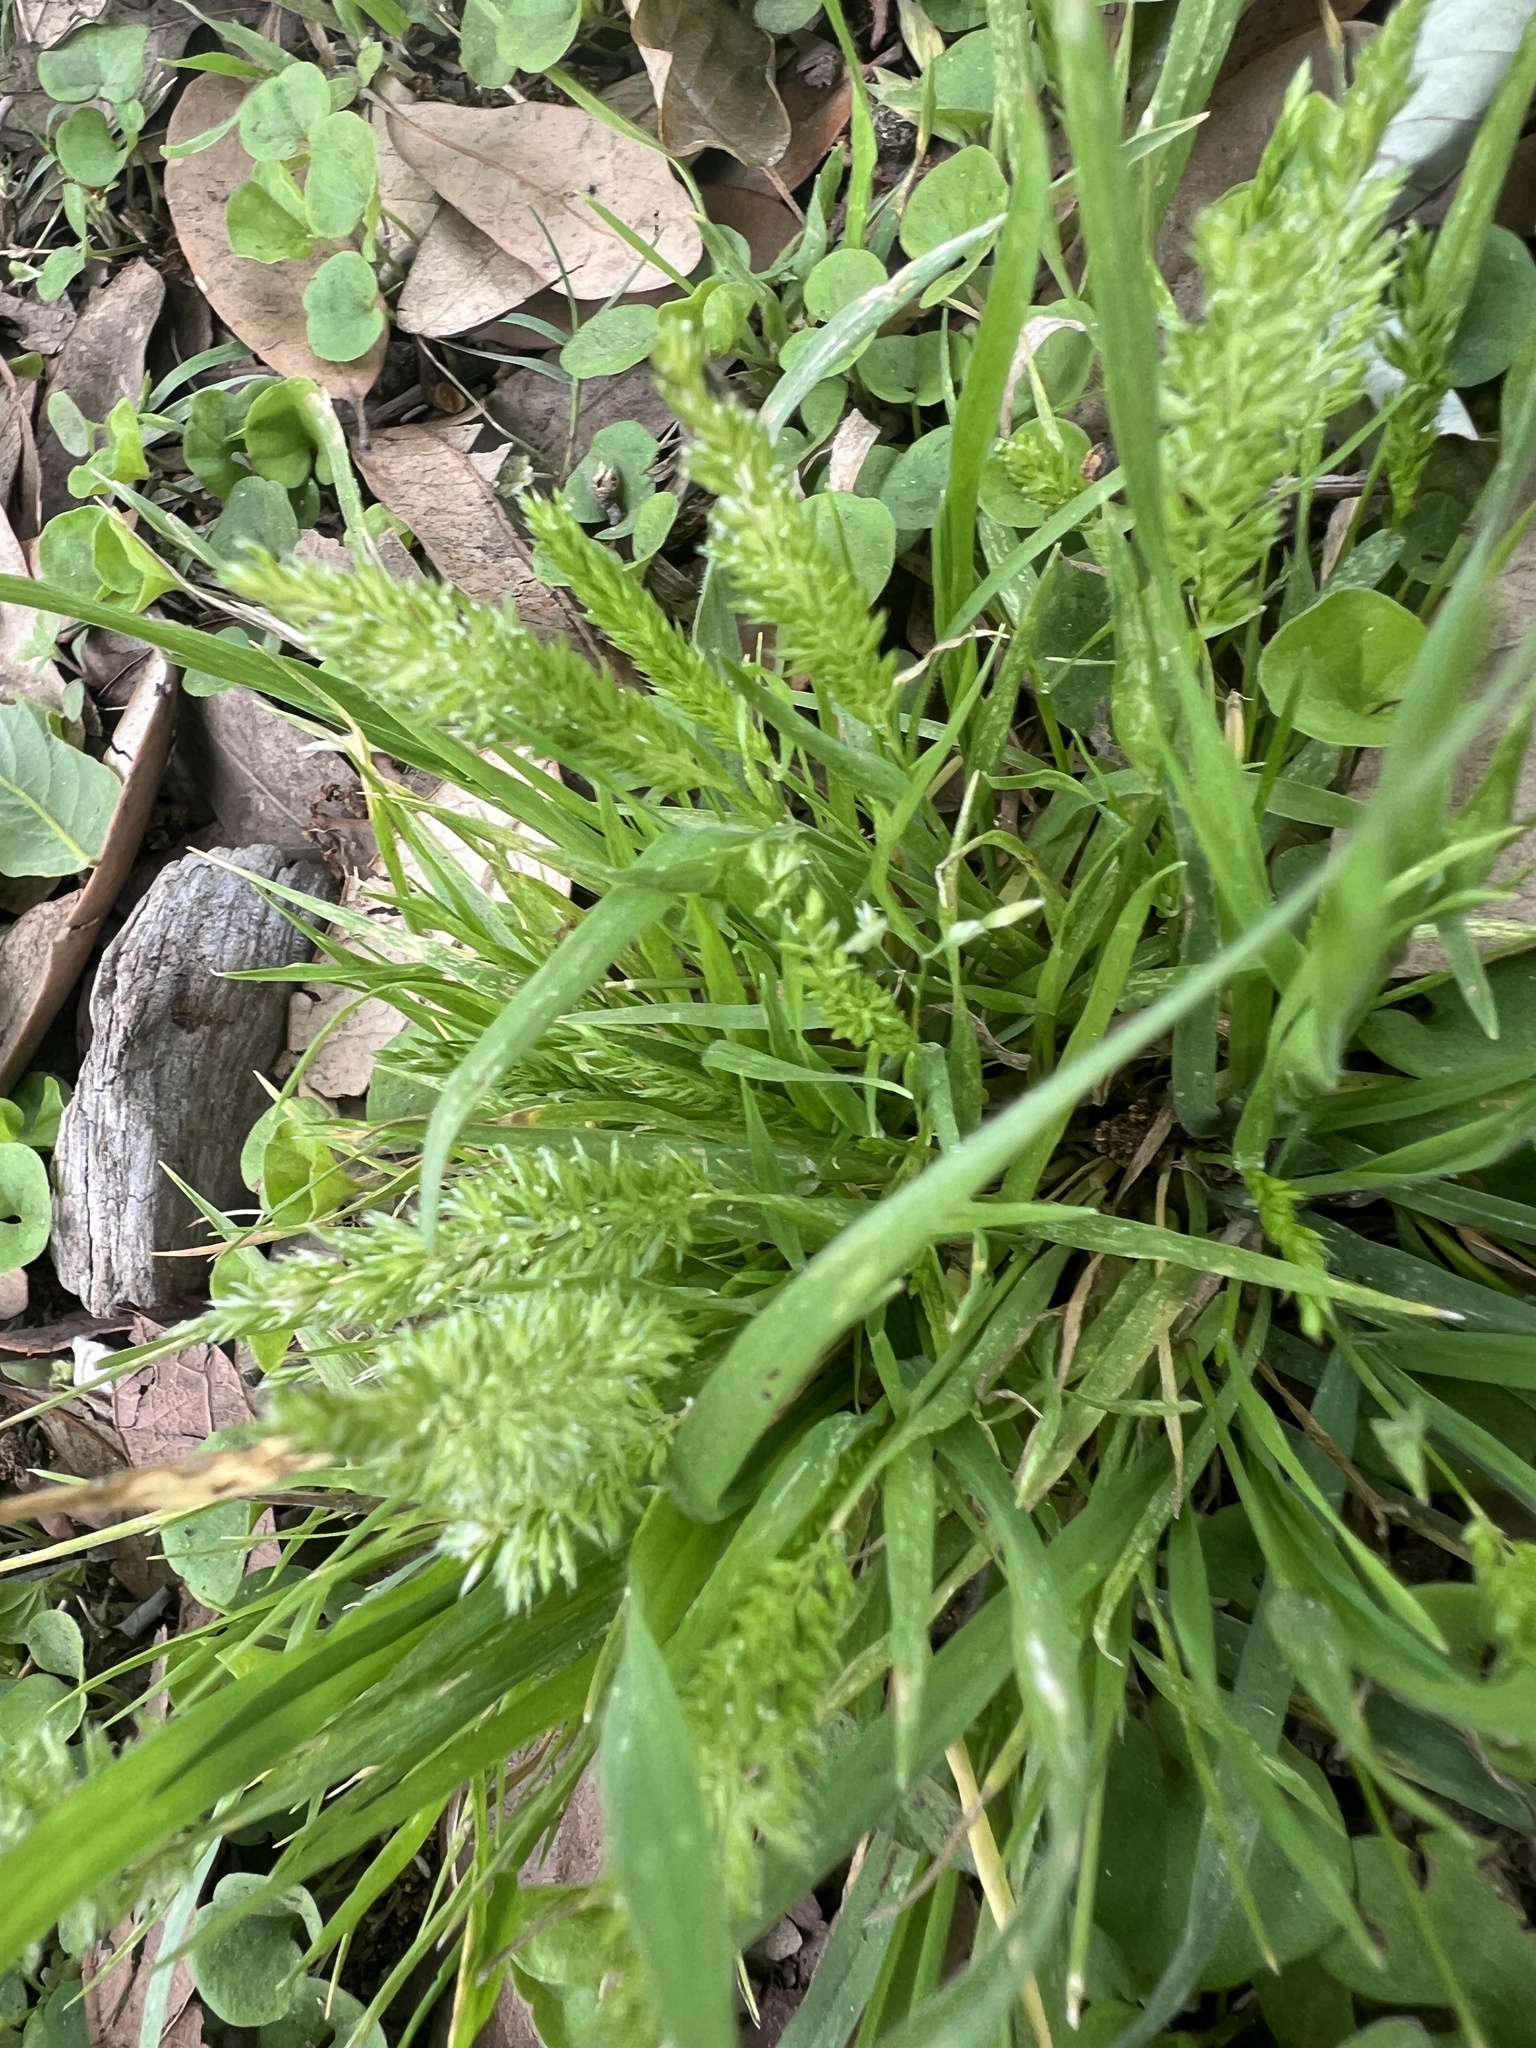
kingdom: Plantae
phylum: Tracheophyta
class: Liliopsida
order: Poales
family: Poaceae
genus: Rostraria
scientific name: Rostraria cristata
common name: Mediterranean hair-grass
